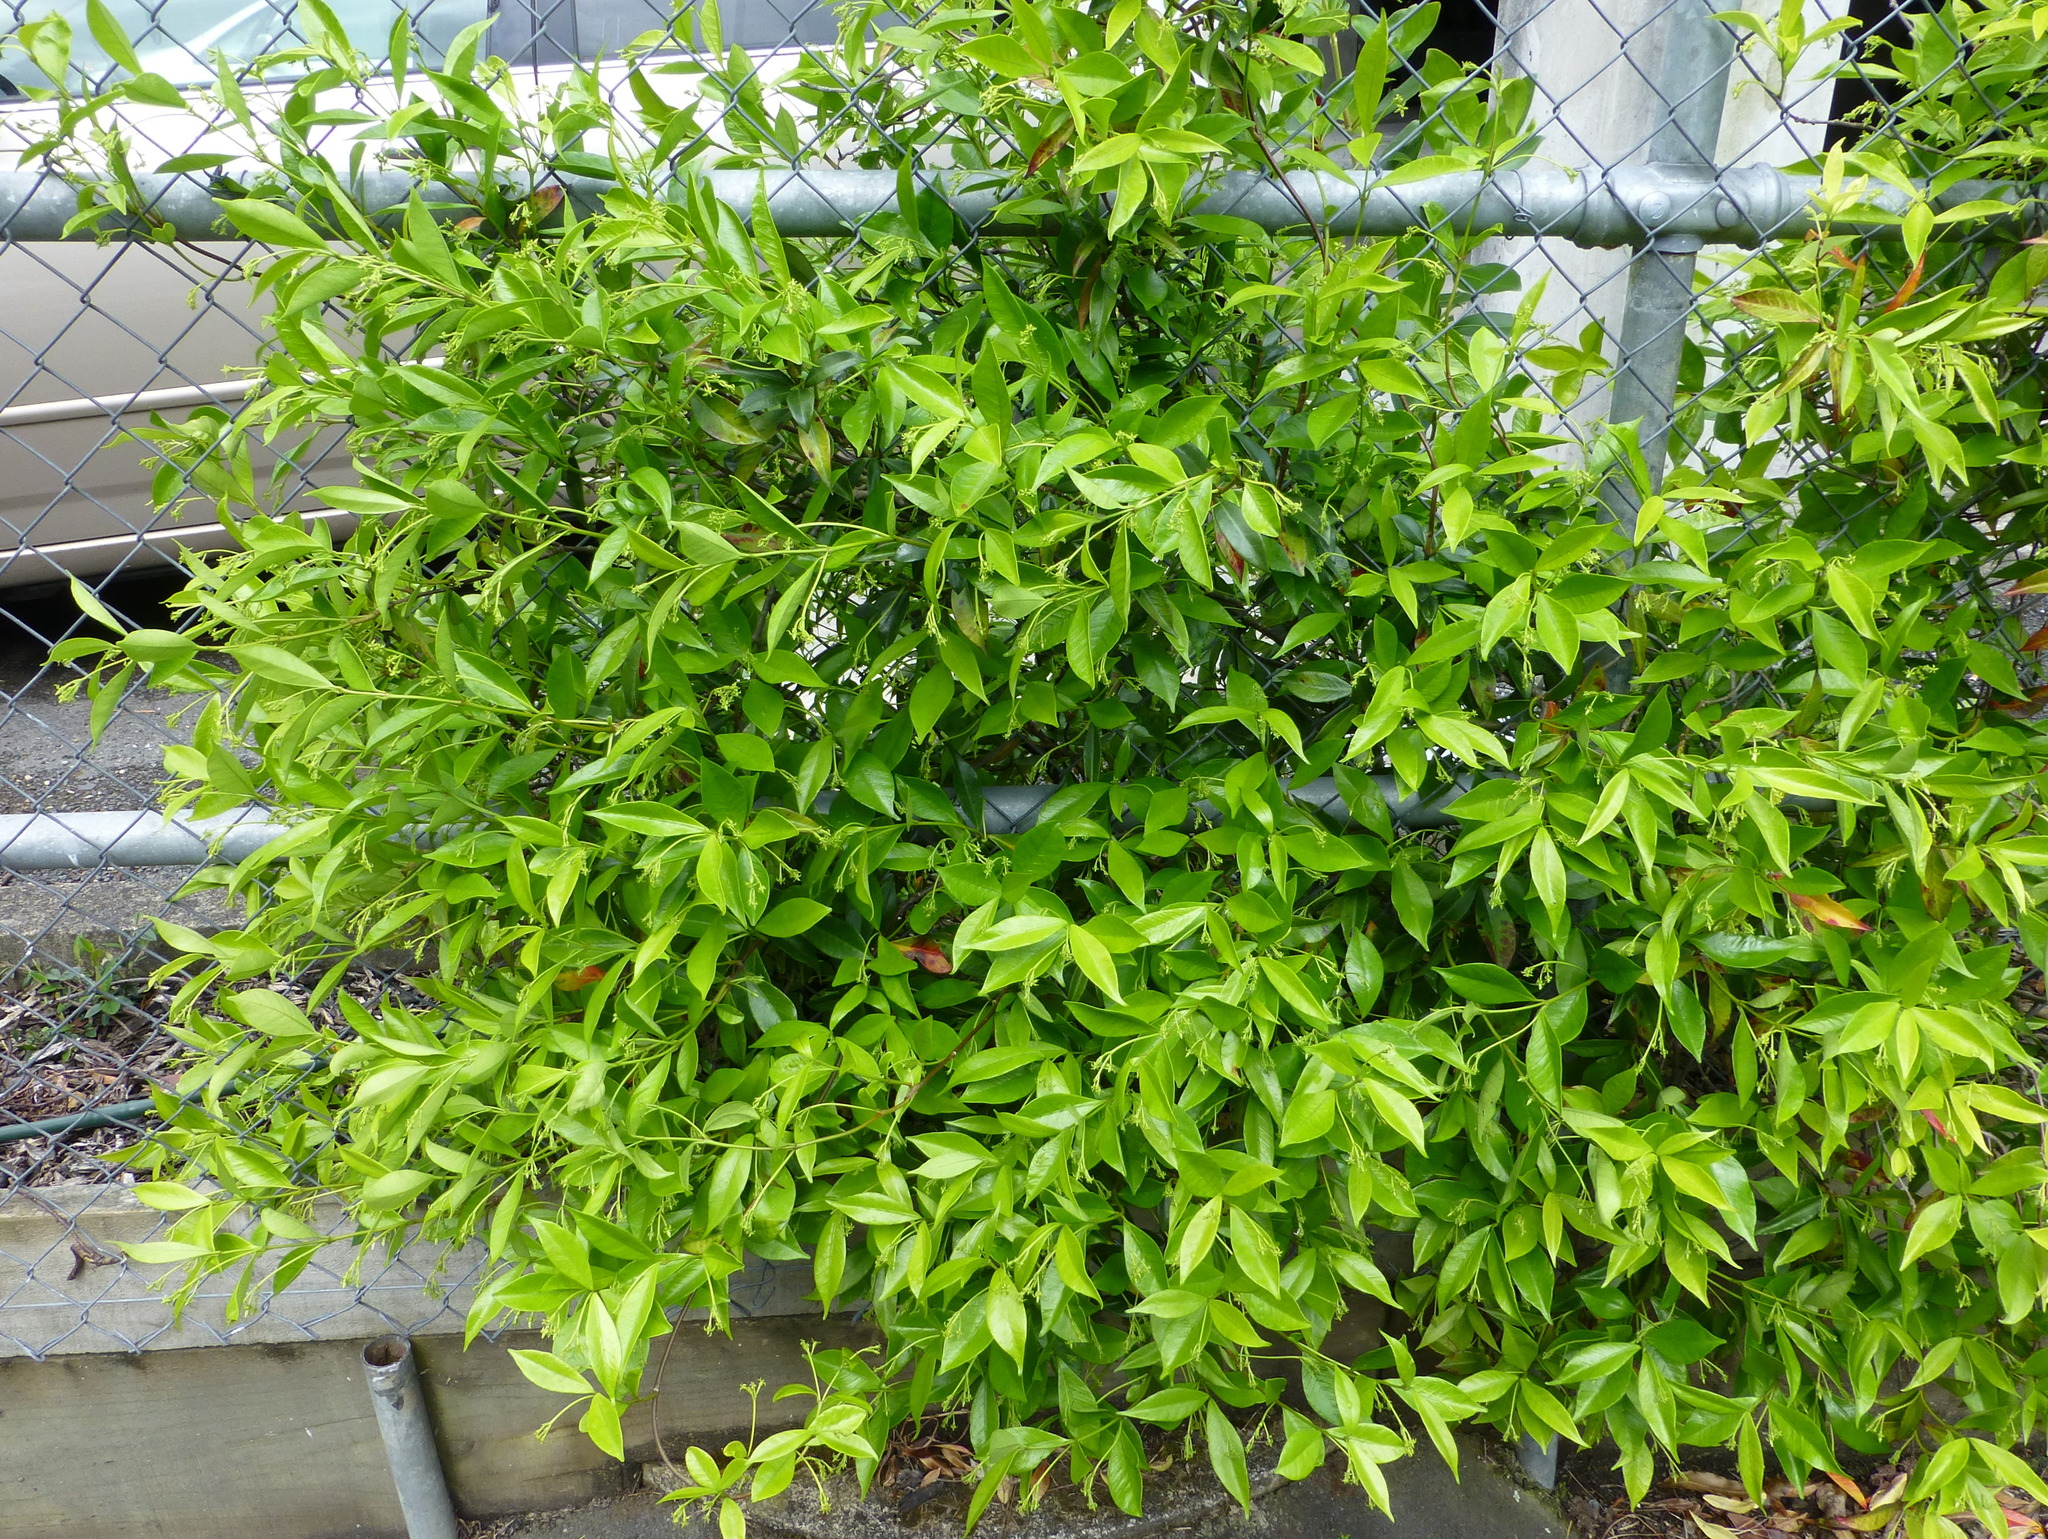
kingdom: Plantae
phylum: Tracheophyta
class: Magnoliopsida
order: Gentianales
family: Apocynaceae
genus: Trachelospermum
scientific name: Trachelospermum jasminoides
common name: Confederate jasmine
